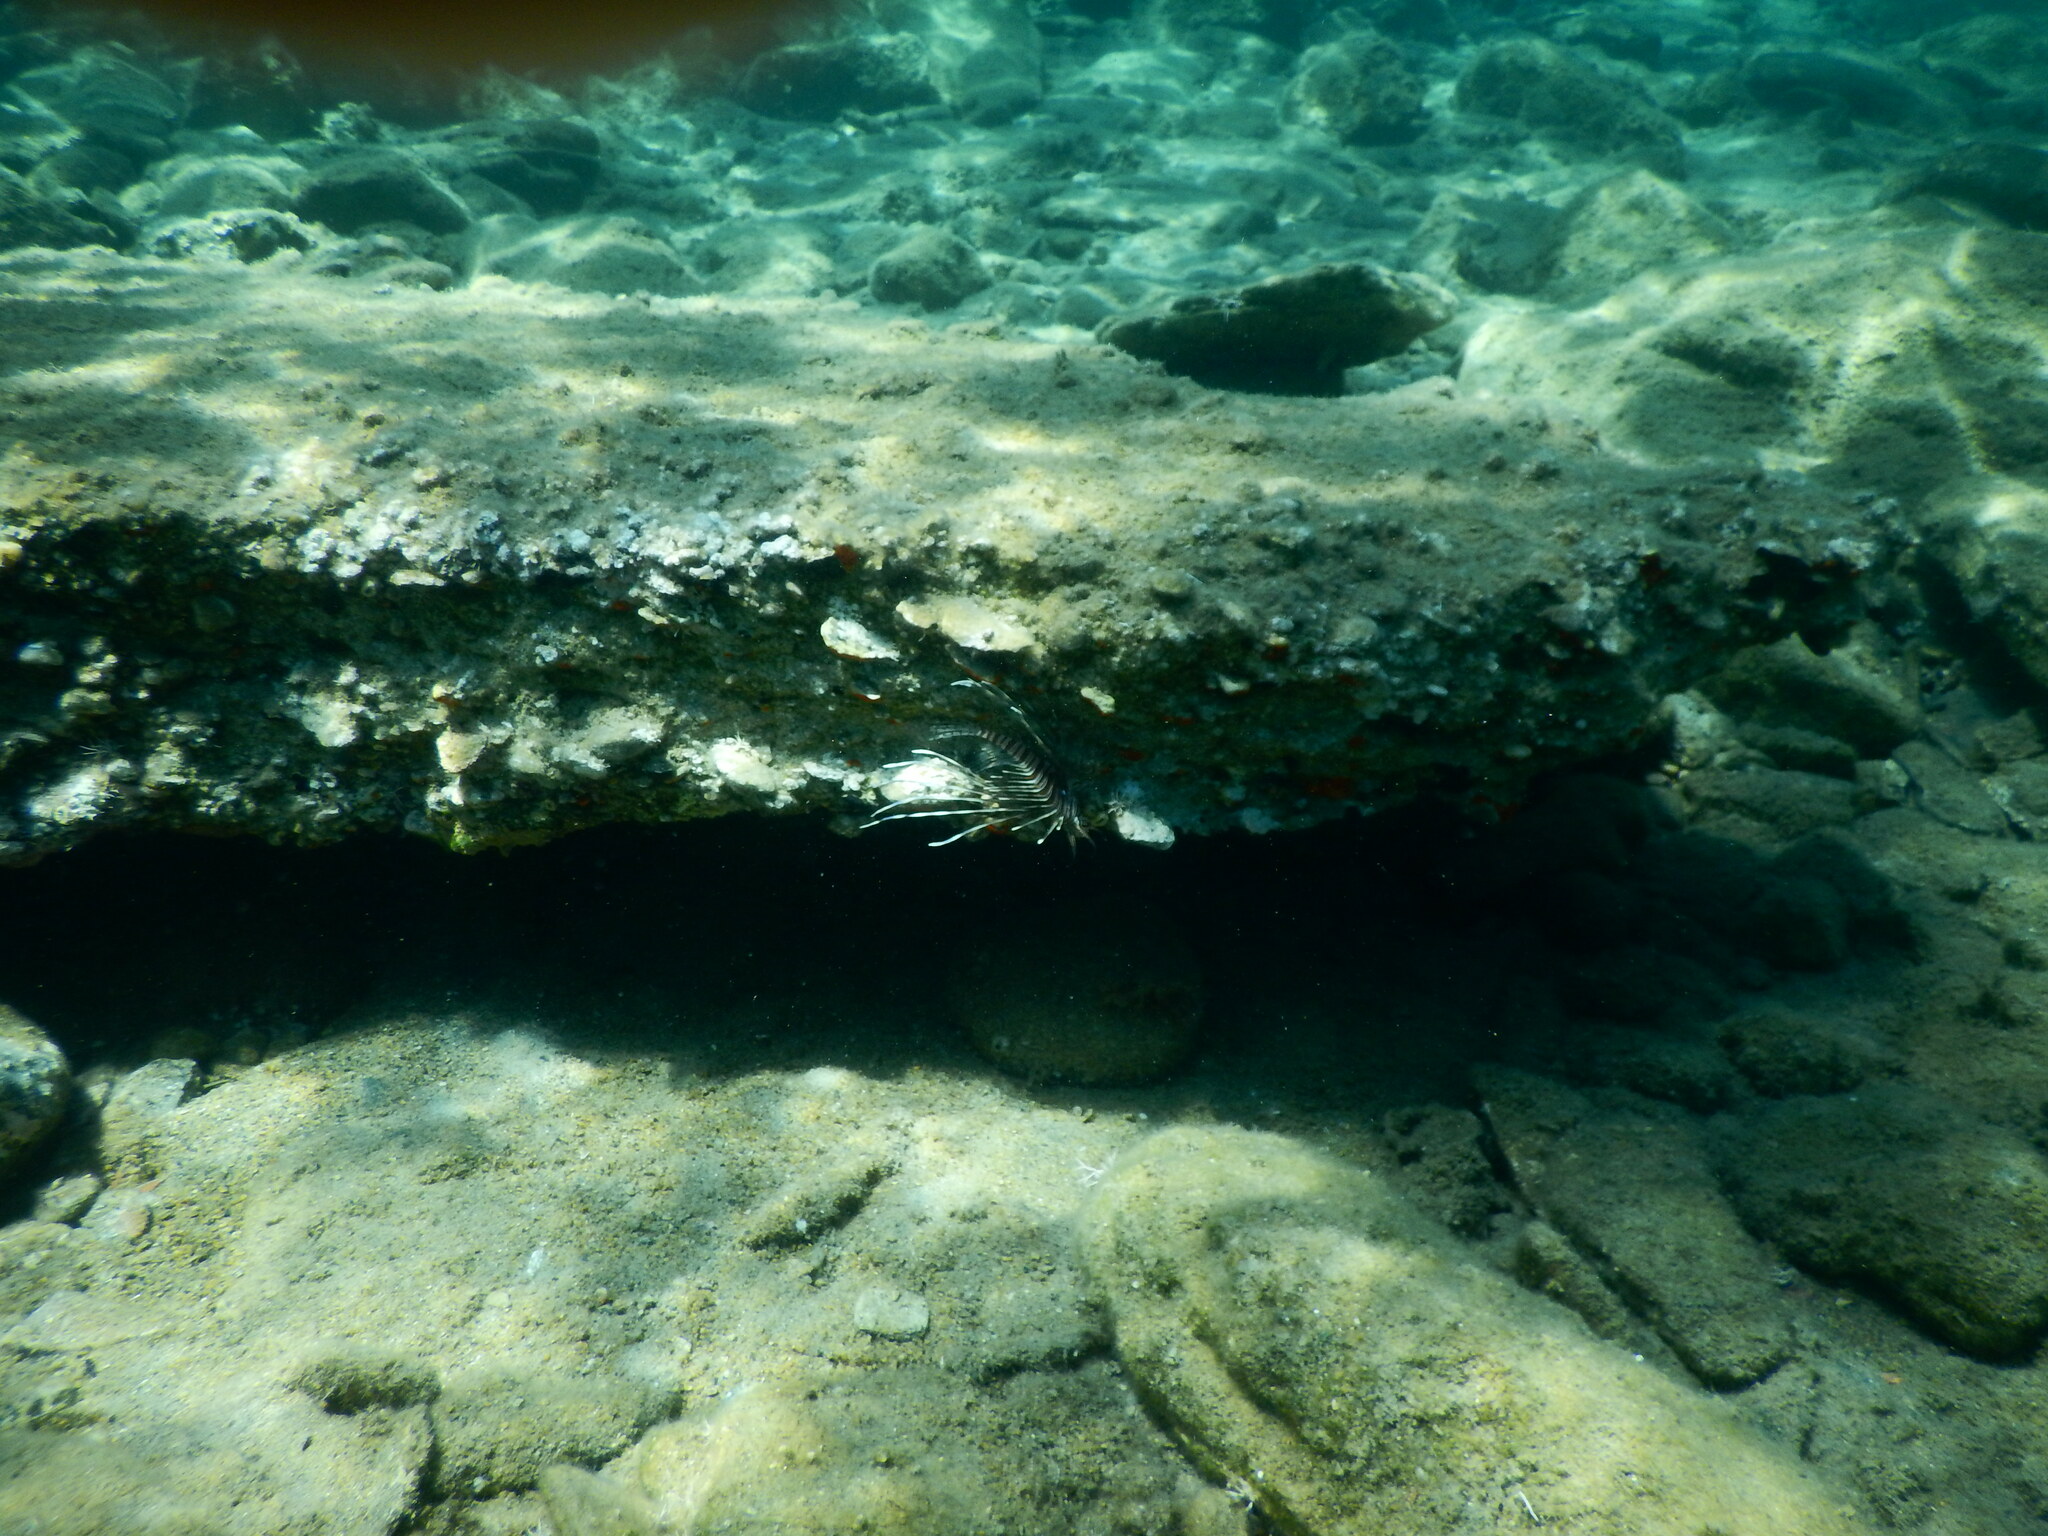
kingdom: Animalia
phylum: Chordata
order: Scorpaeniformes
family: Scorpaenidae
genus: Pterois
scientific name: Pterois miles
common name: Devil firefish
